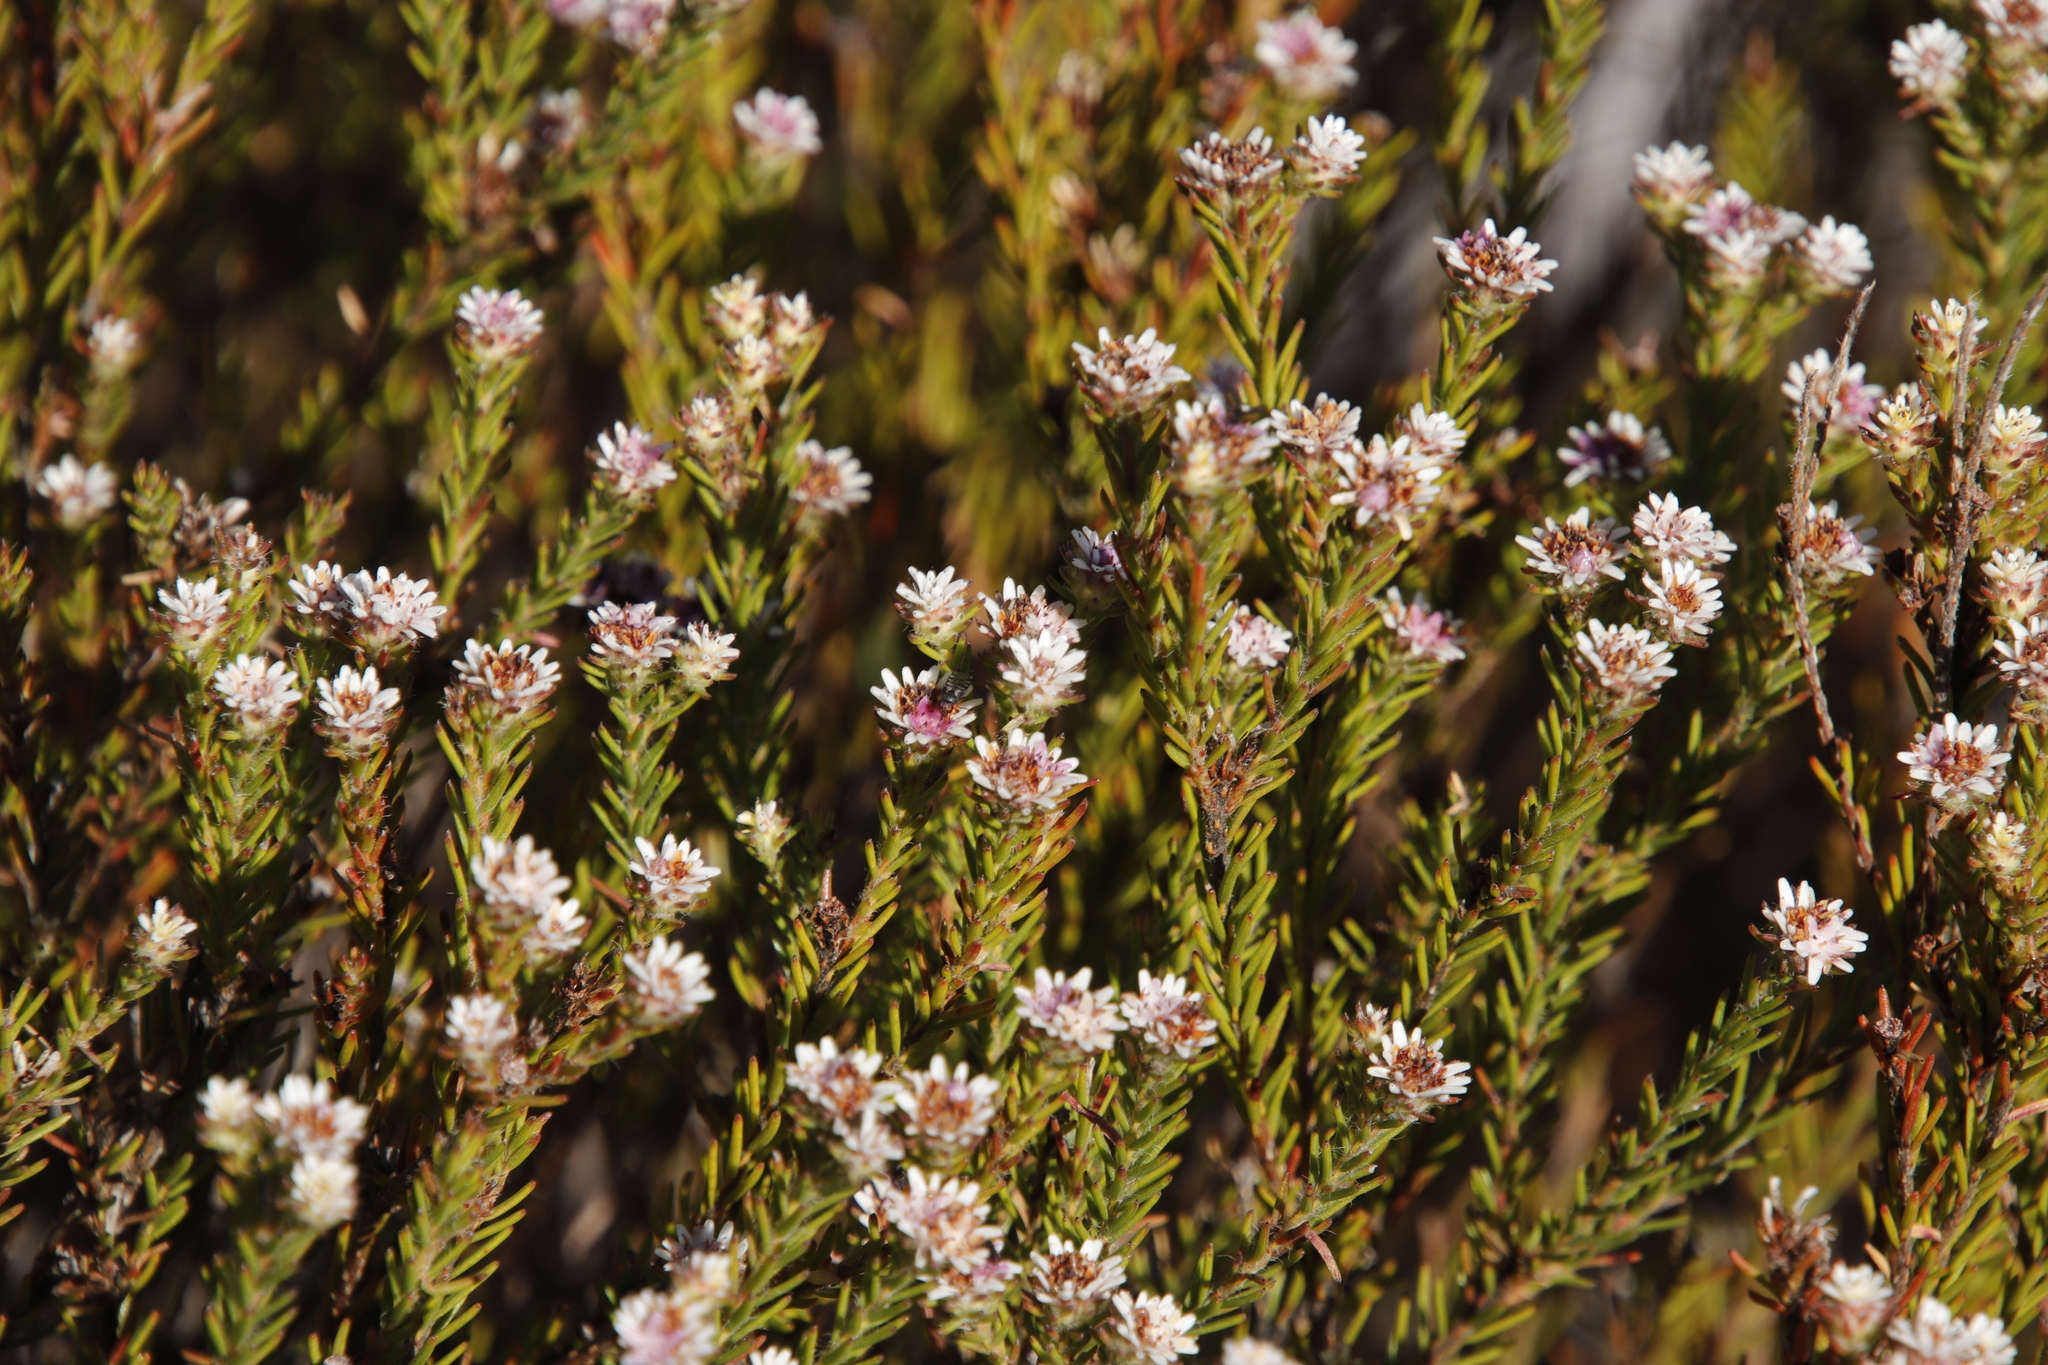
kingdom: Plantae
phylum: Tracheophyta
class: Magnoliopsida
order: Bruniales
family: Bruniaceae
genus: Staavia
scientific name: Staavia radiata
